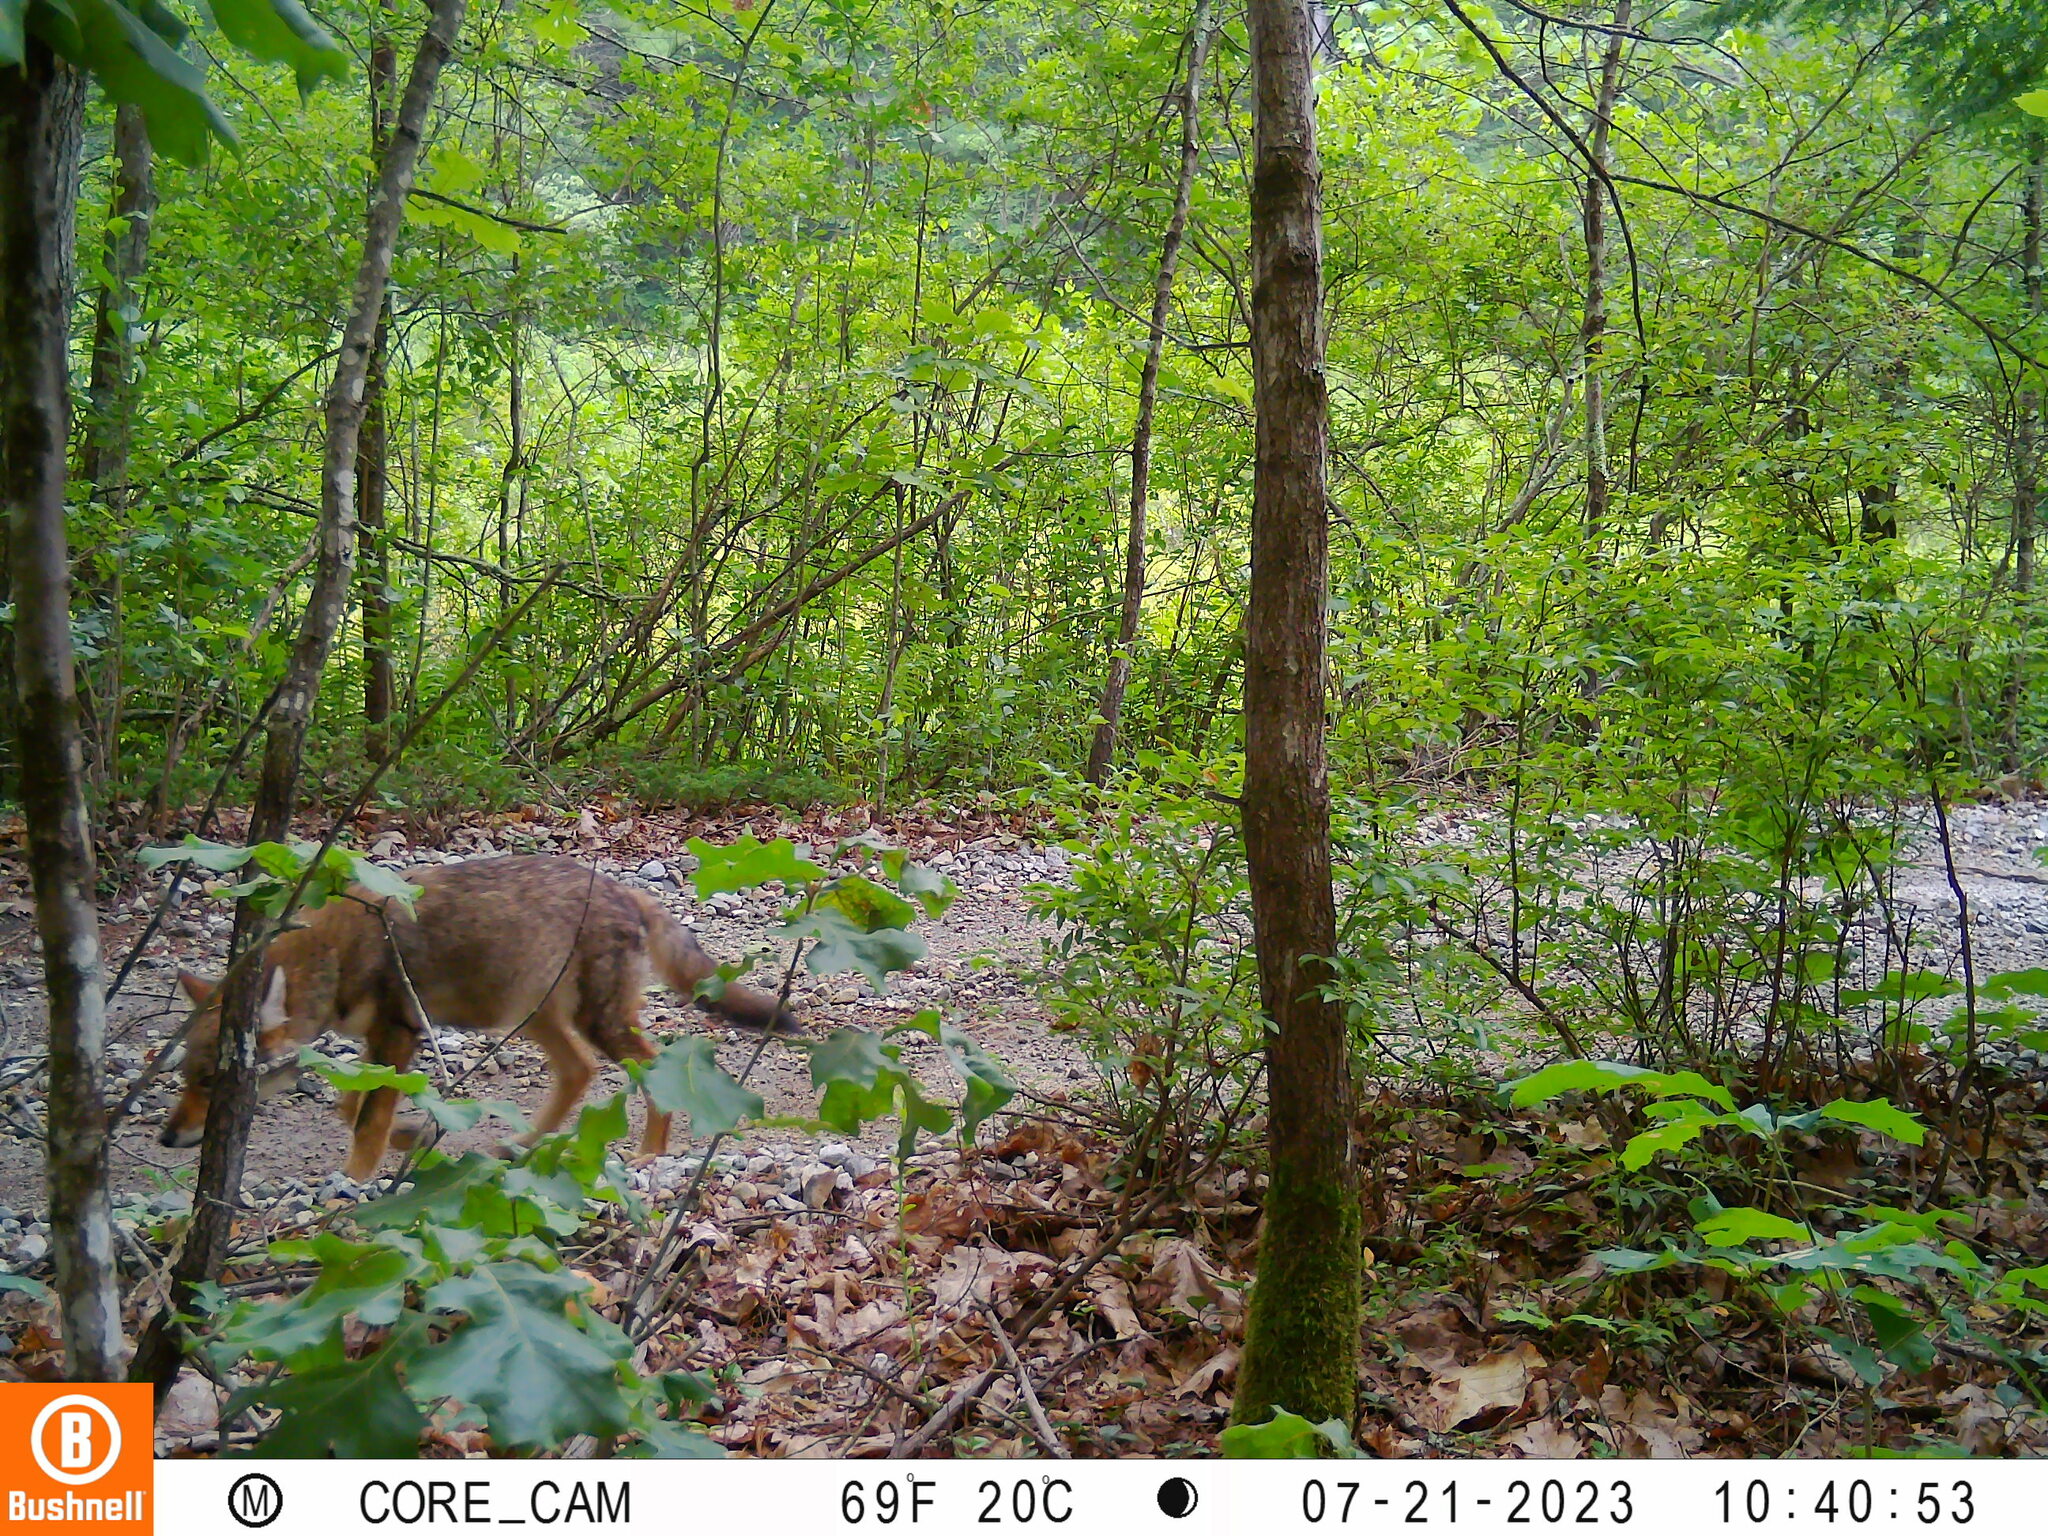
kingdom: Animalia
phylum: Chordata
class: Mammalia
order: Carnivora
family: Canidae
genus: Canis
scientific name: Canis latrans
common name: Coyote
